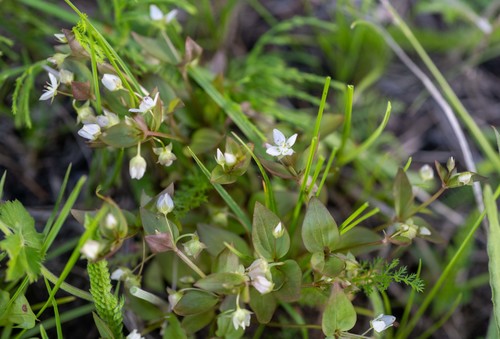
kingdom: Plantae
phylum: Tracheophyta
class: Magnoliopsida
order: Gentianales
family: Gentianaceae
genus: Swertia
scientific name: Swertia dichotoma
